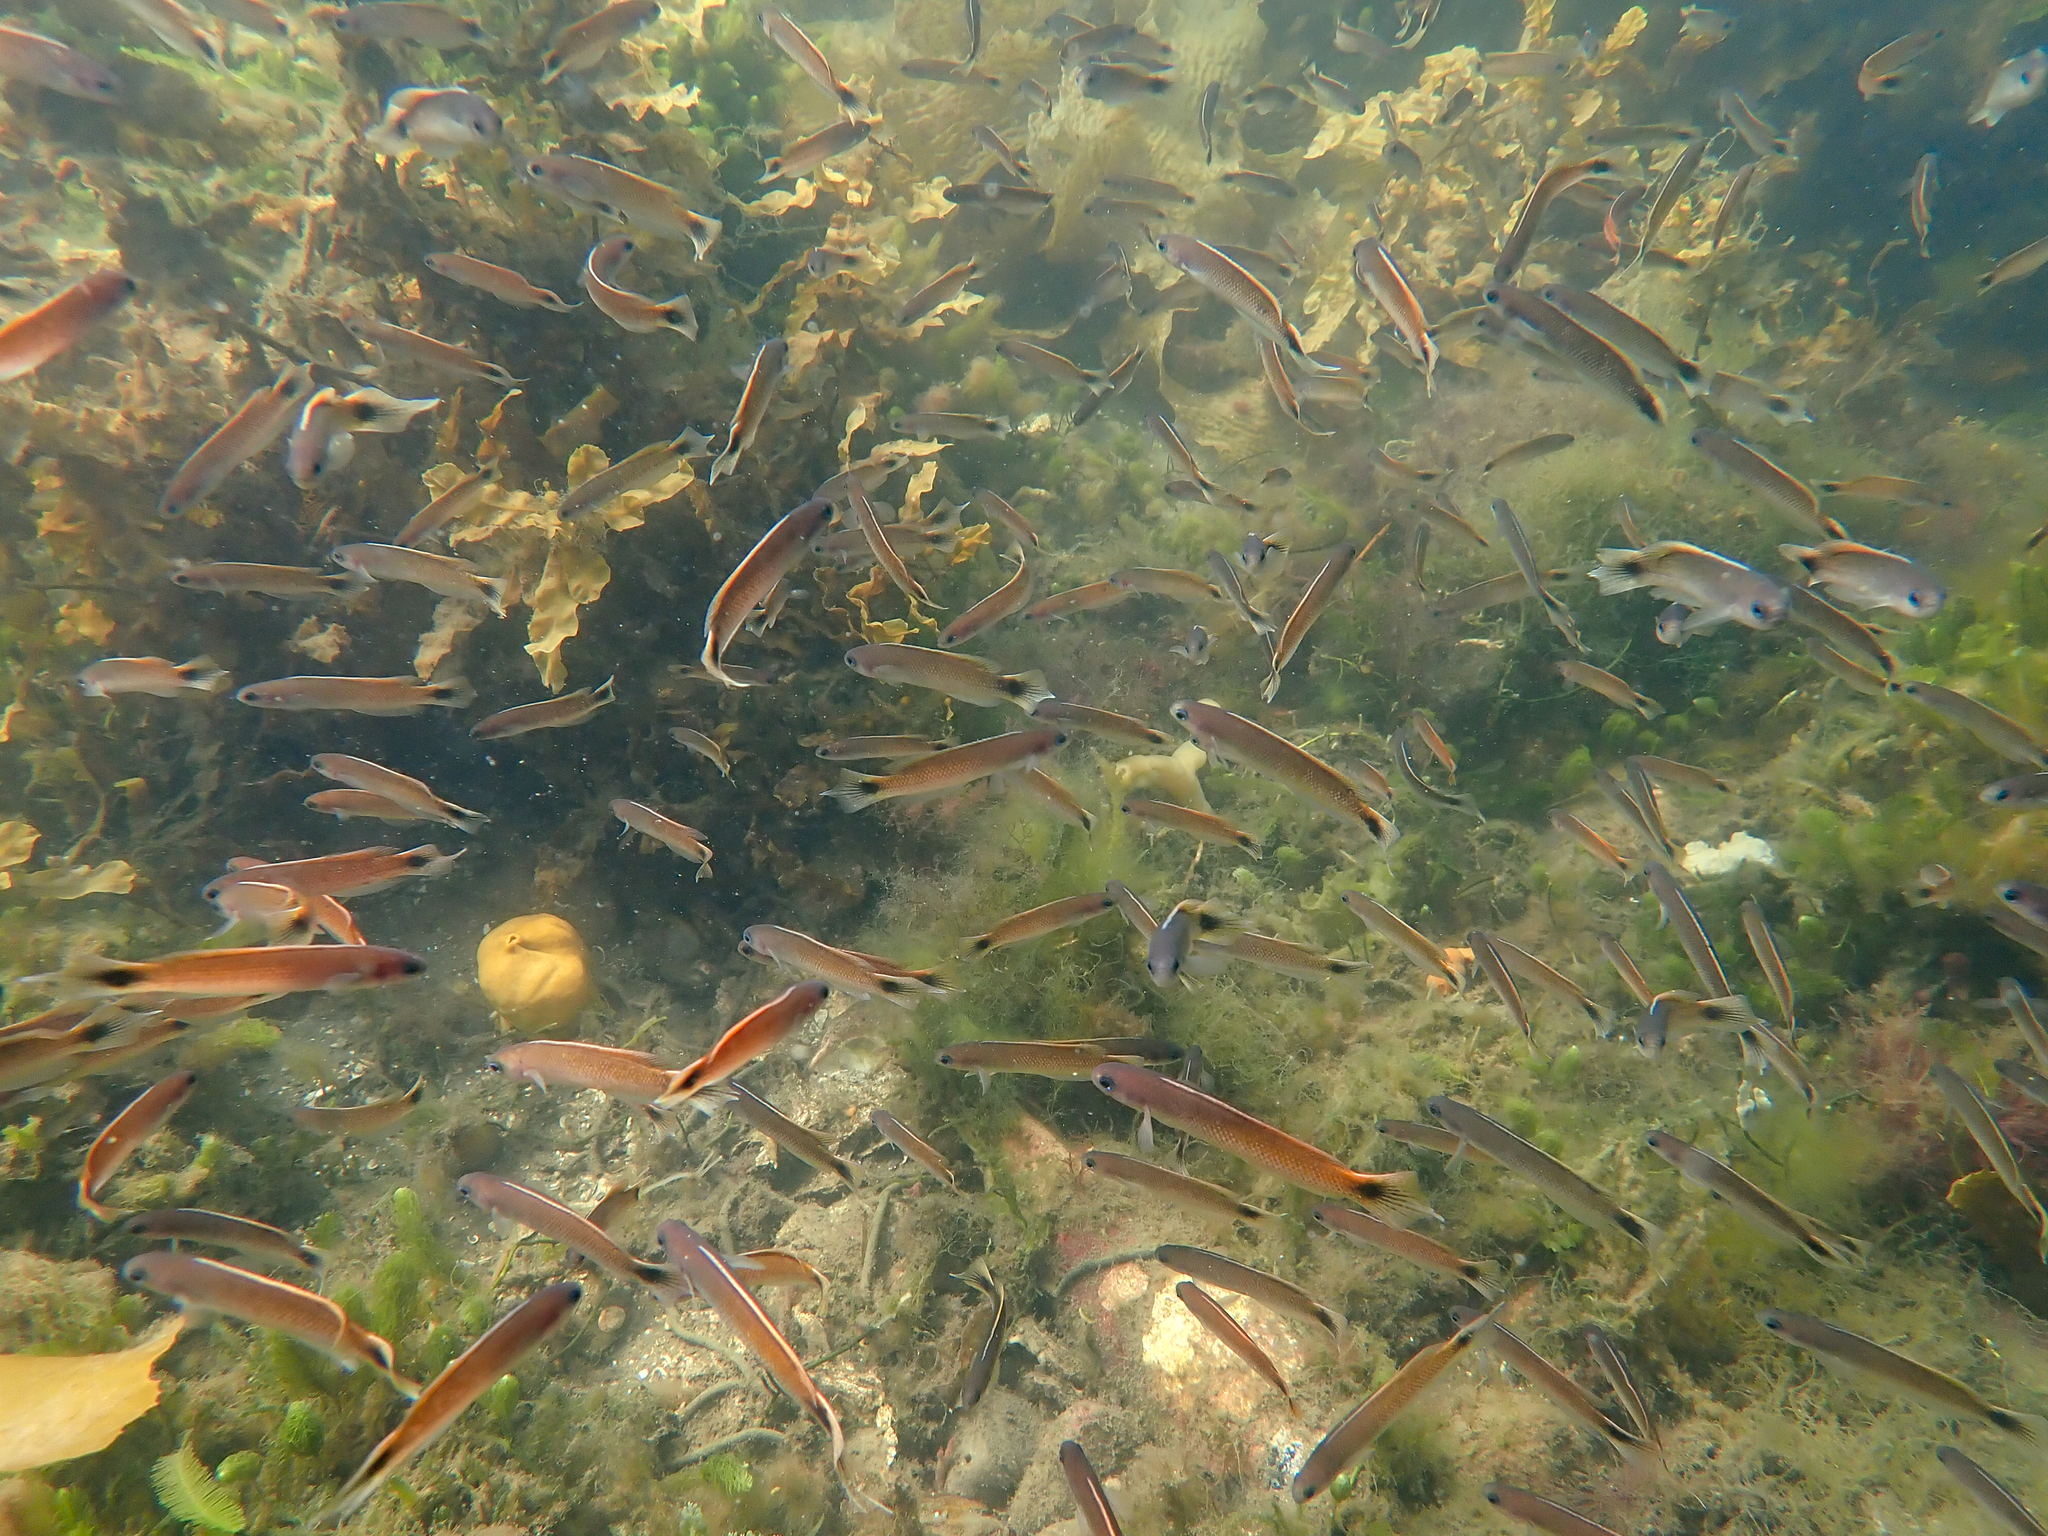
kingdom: Animalia
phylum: Chordata
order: Perciformes
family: Plesiopidae
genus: Trachinops
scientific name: Trachinops caudimaculatus
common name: Blotched-tailed trachinops
